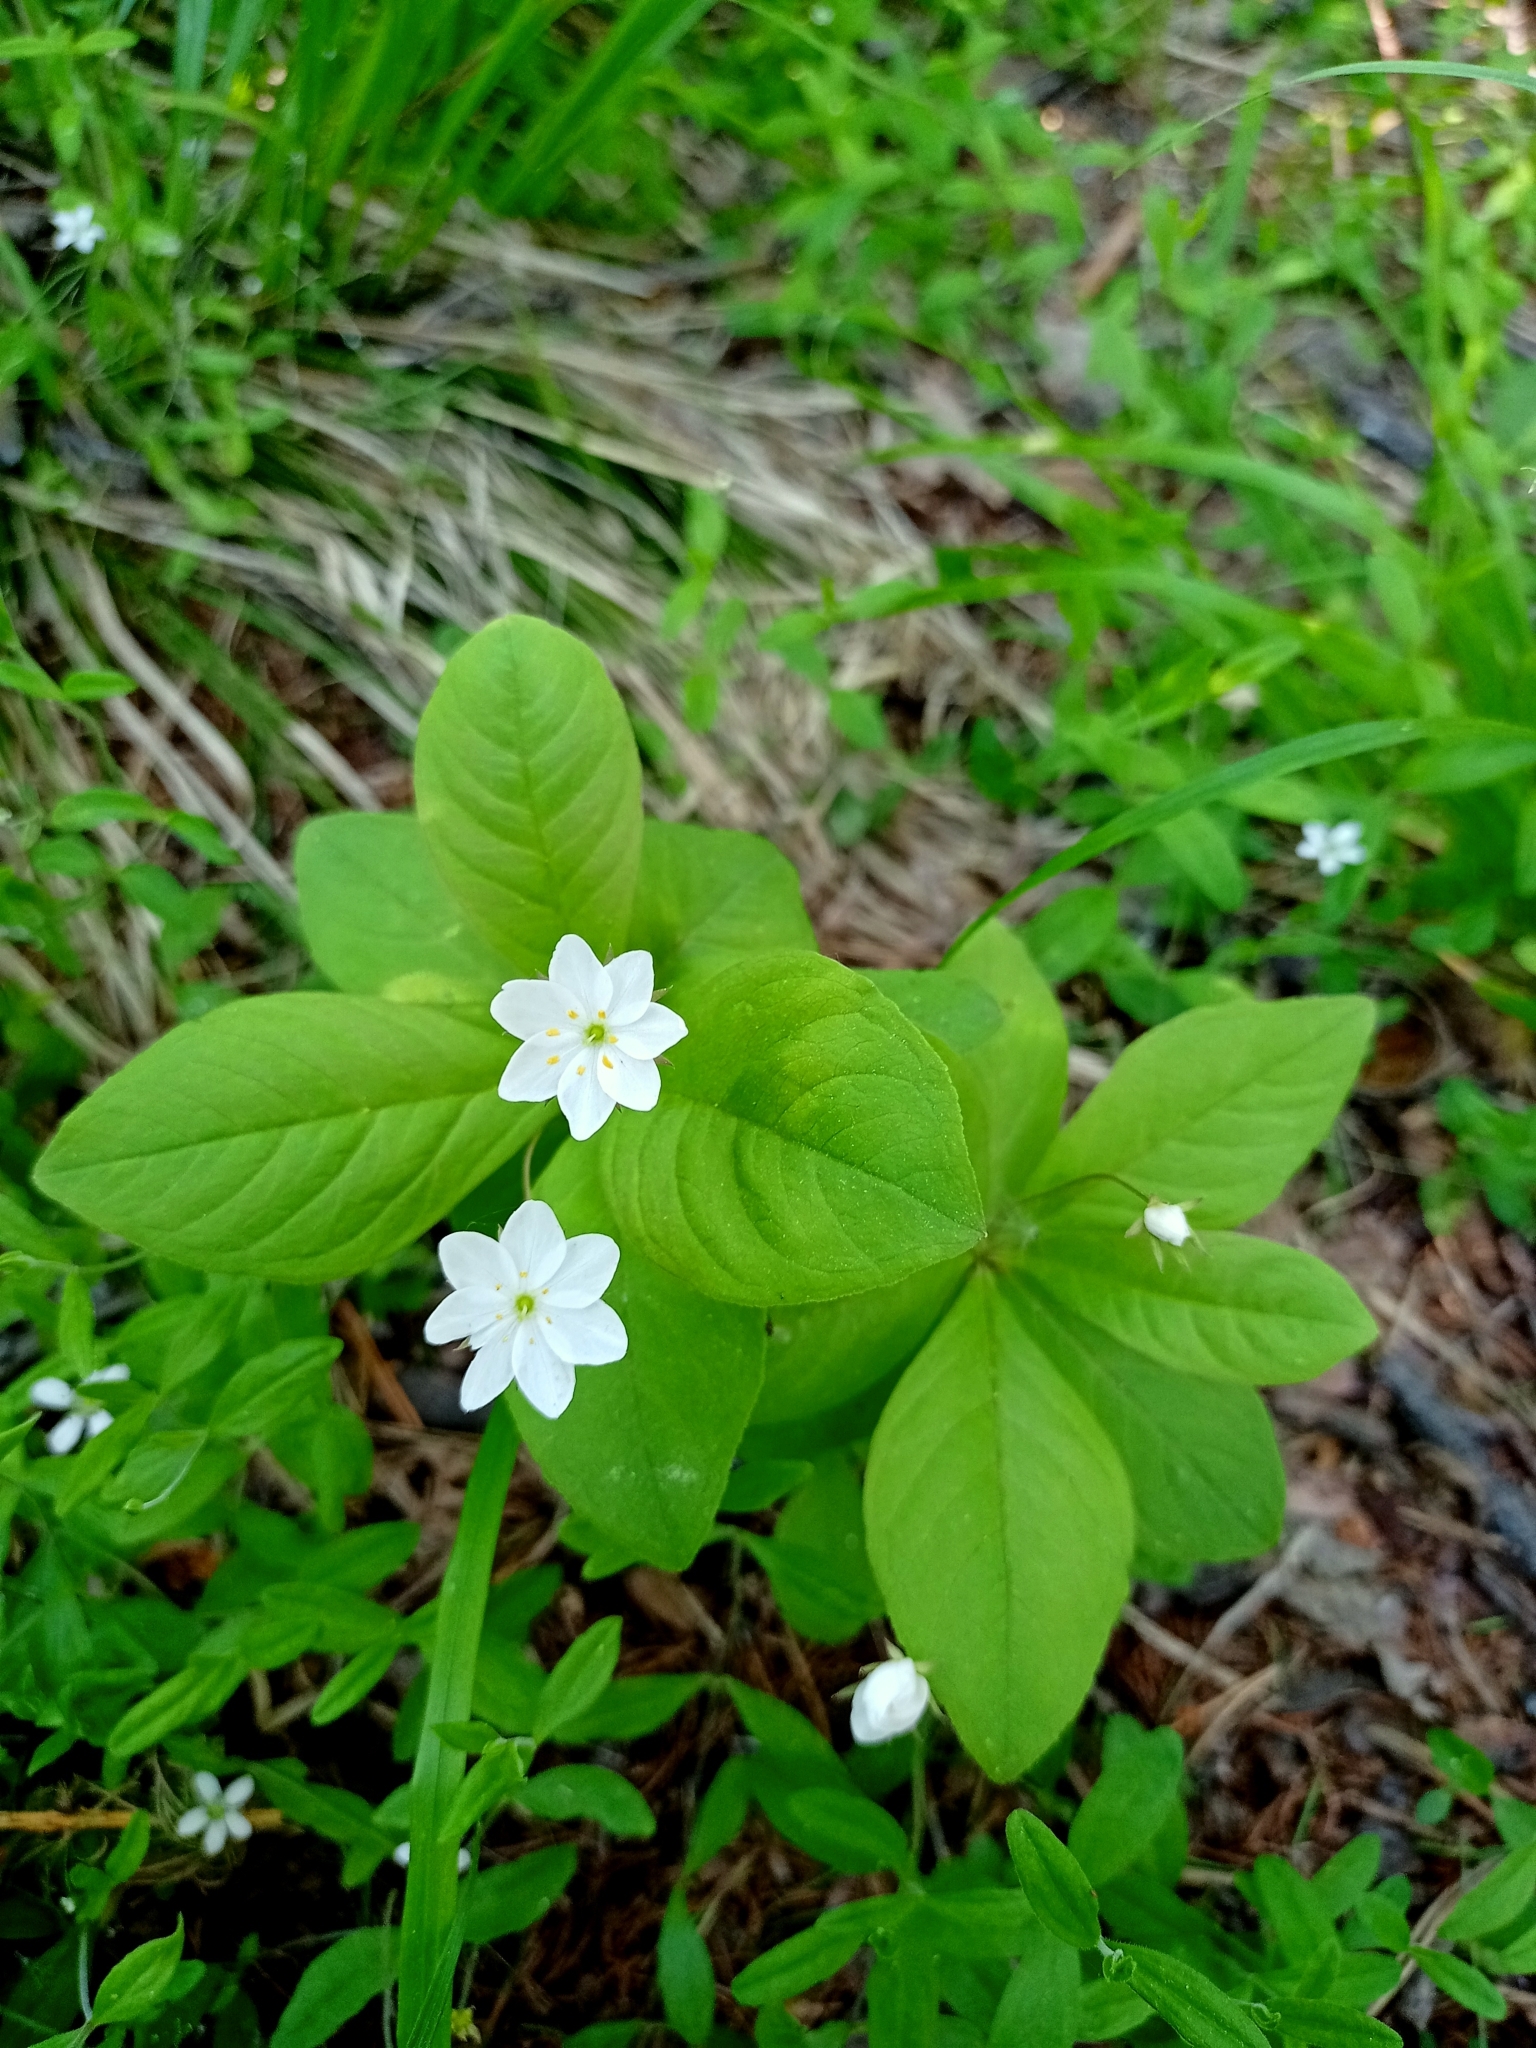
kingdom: Plantae
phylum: Tracheophyta
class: Magnoliopsida
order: Ericales
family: Primulaceae
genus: Lysimachia
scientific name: Lysimachia europaea
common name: Arctic starflower
